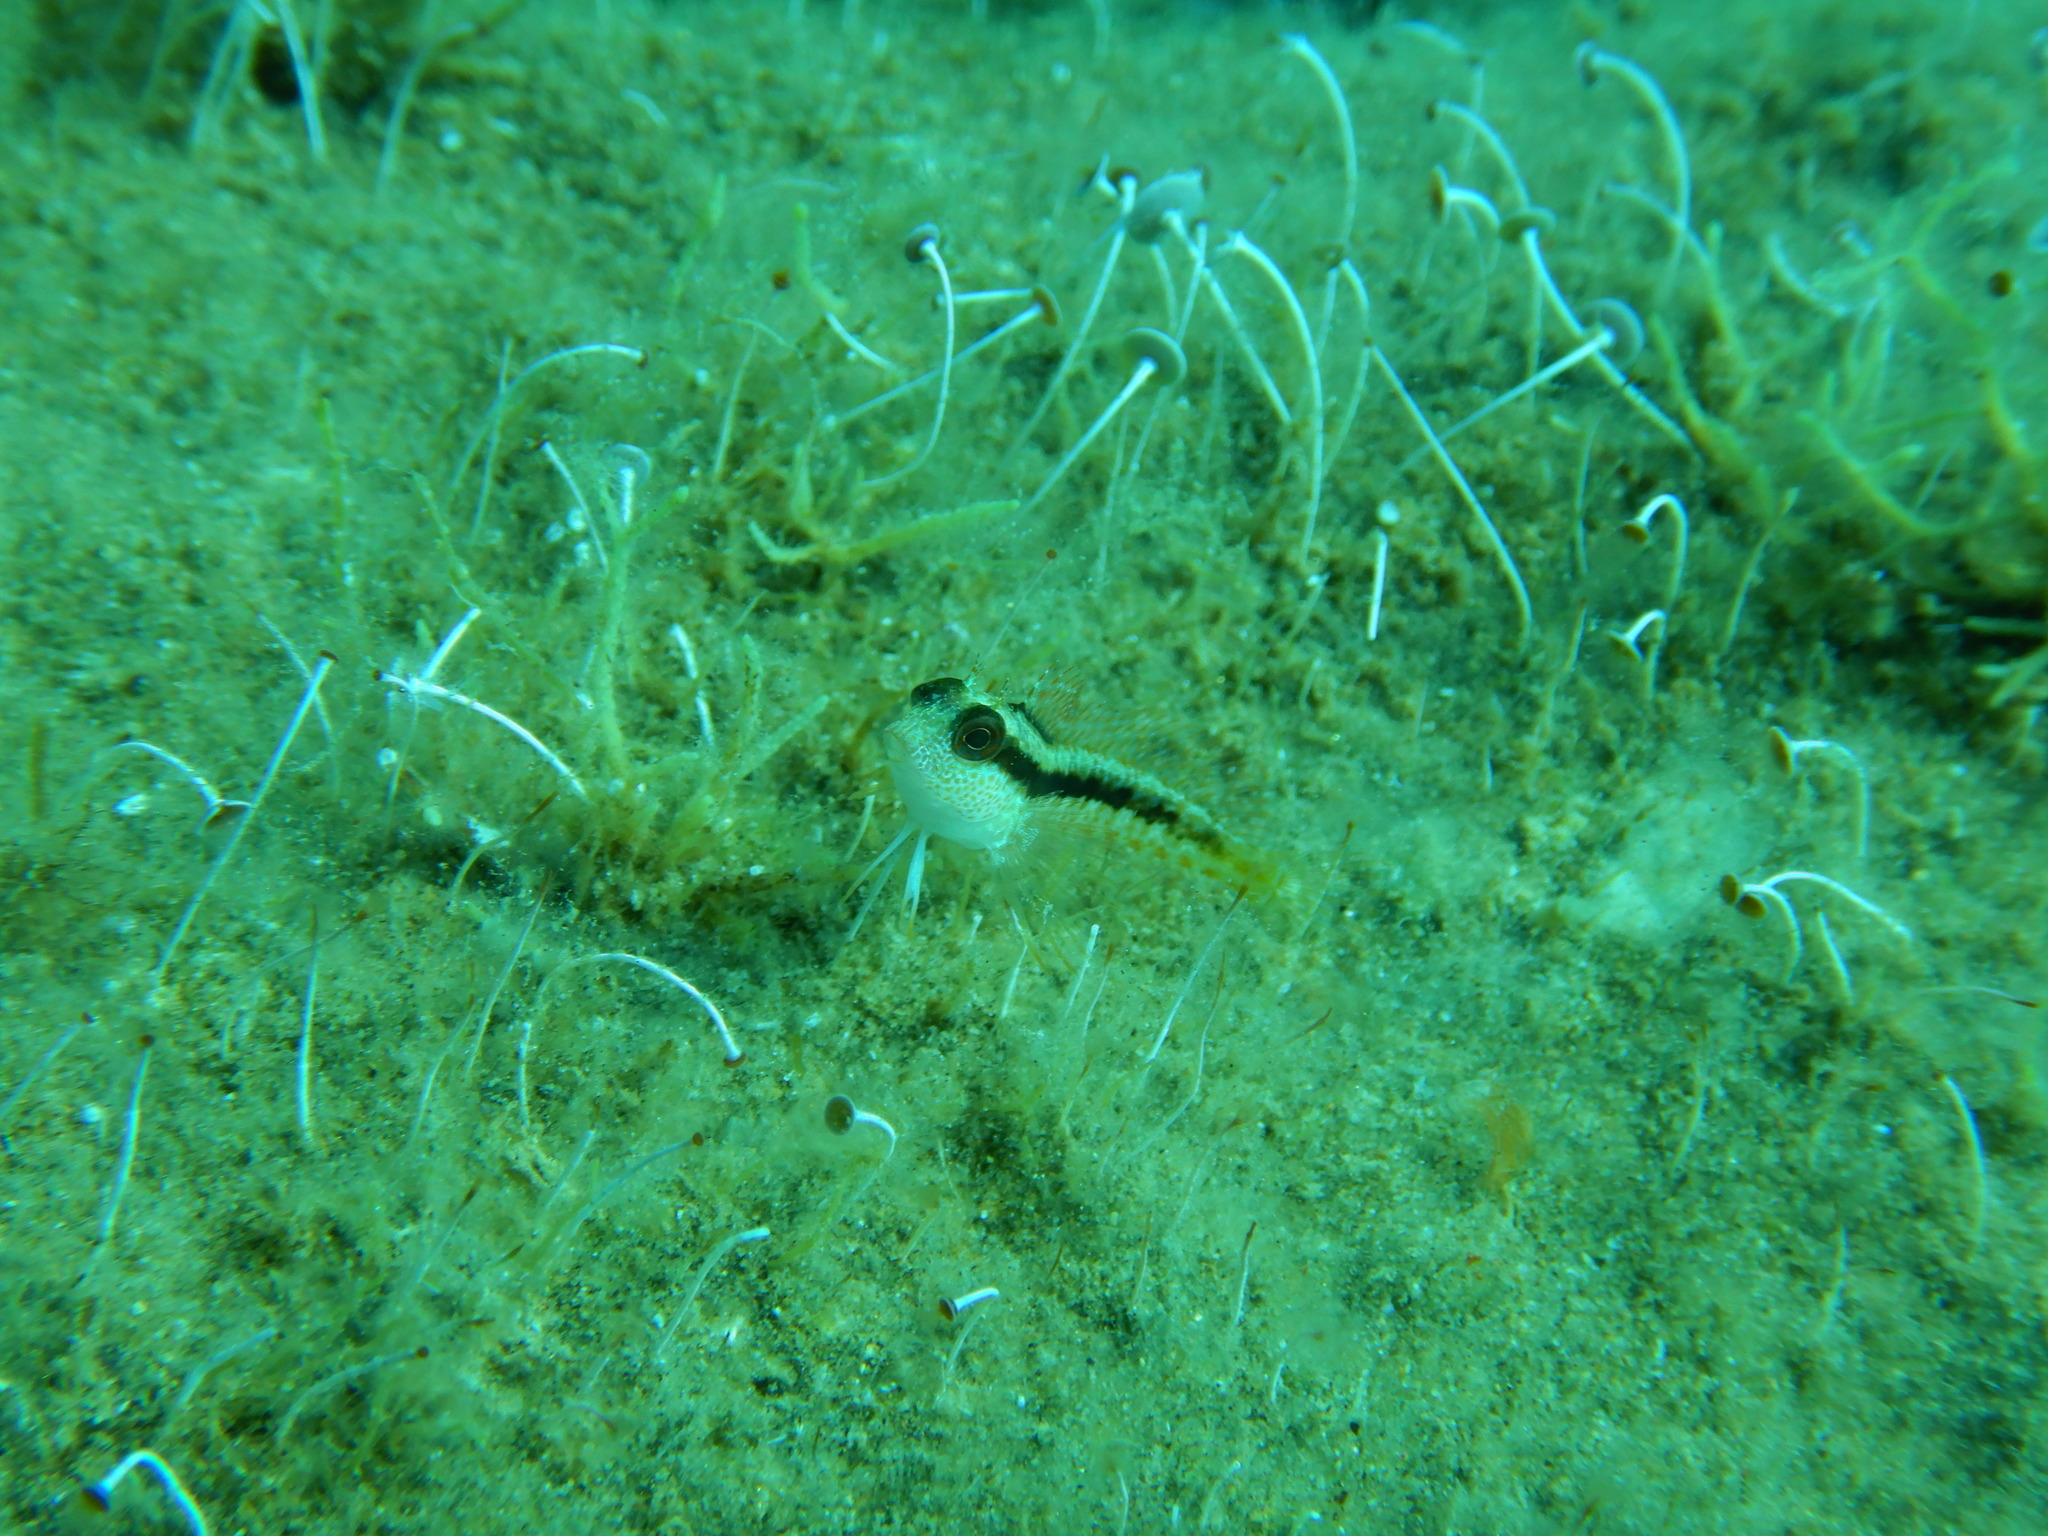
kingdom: Animalia
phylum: Chordata
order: Perciformes
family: Blenniidae
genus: Parablennius
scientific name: Parablennius pilicornis
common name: Ringneck blenny
